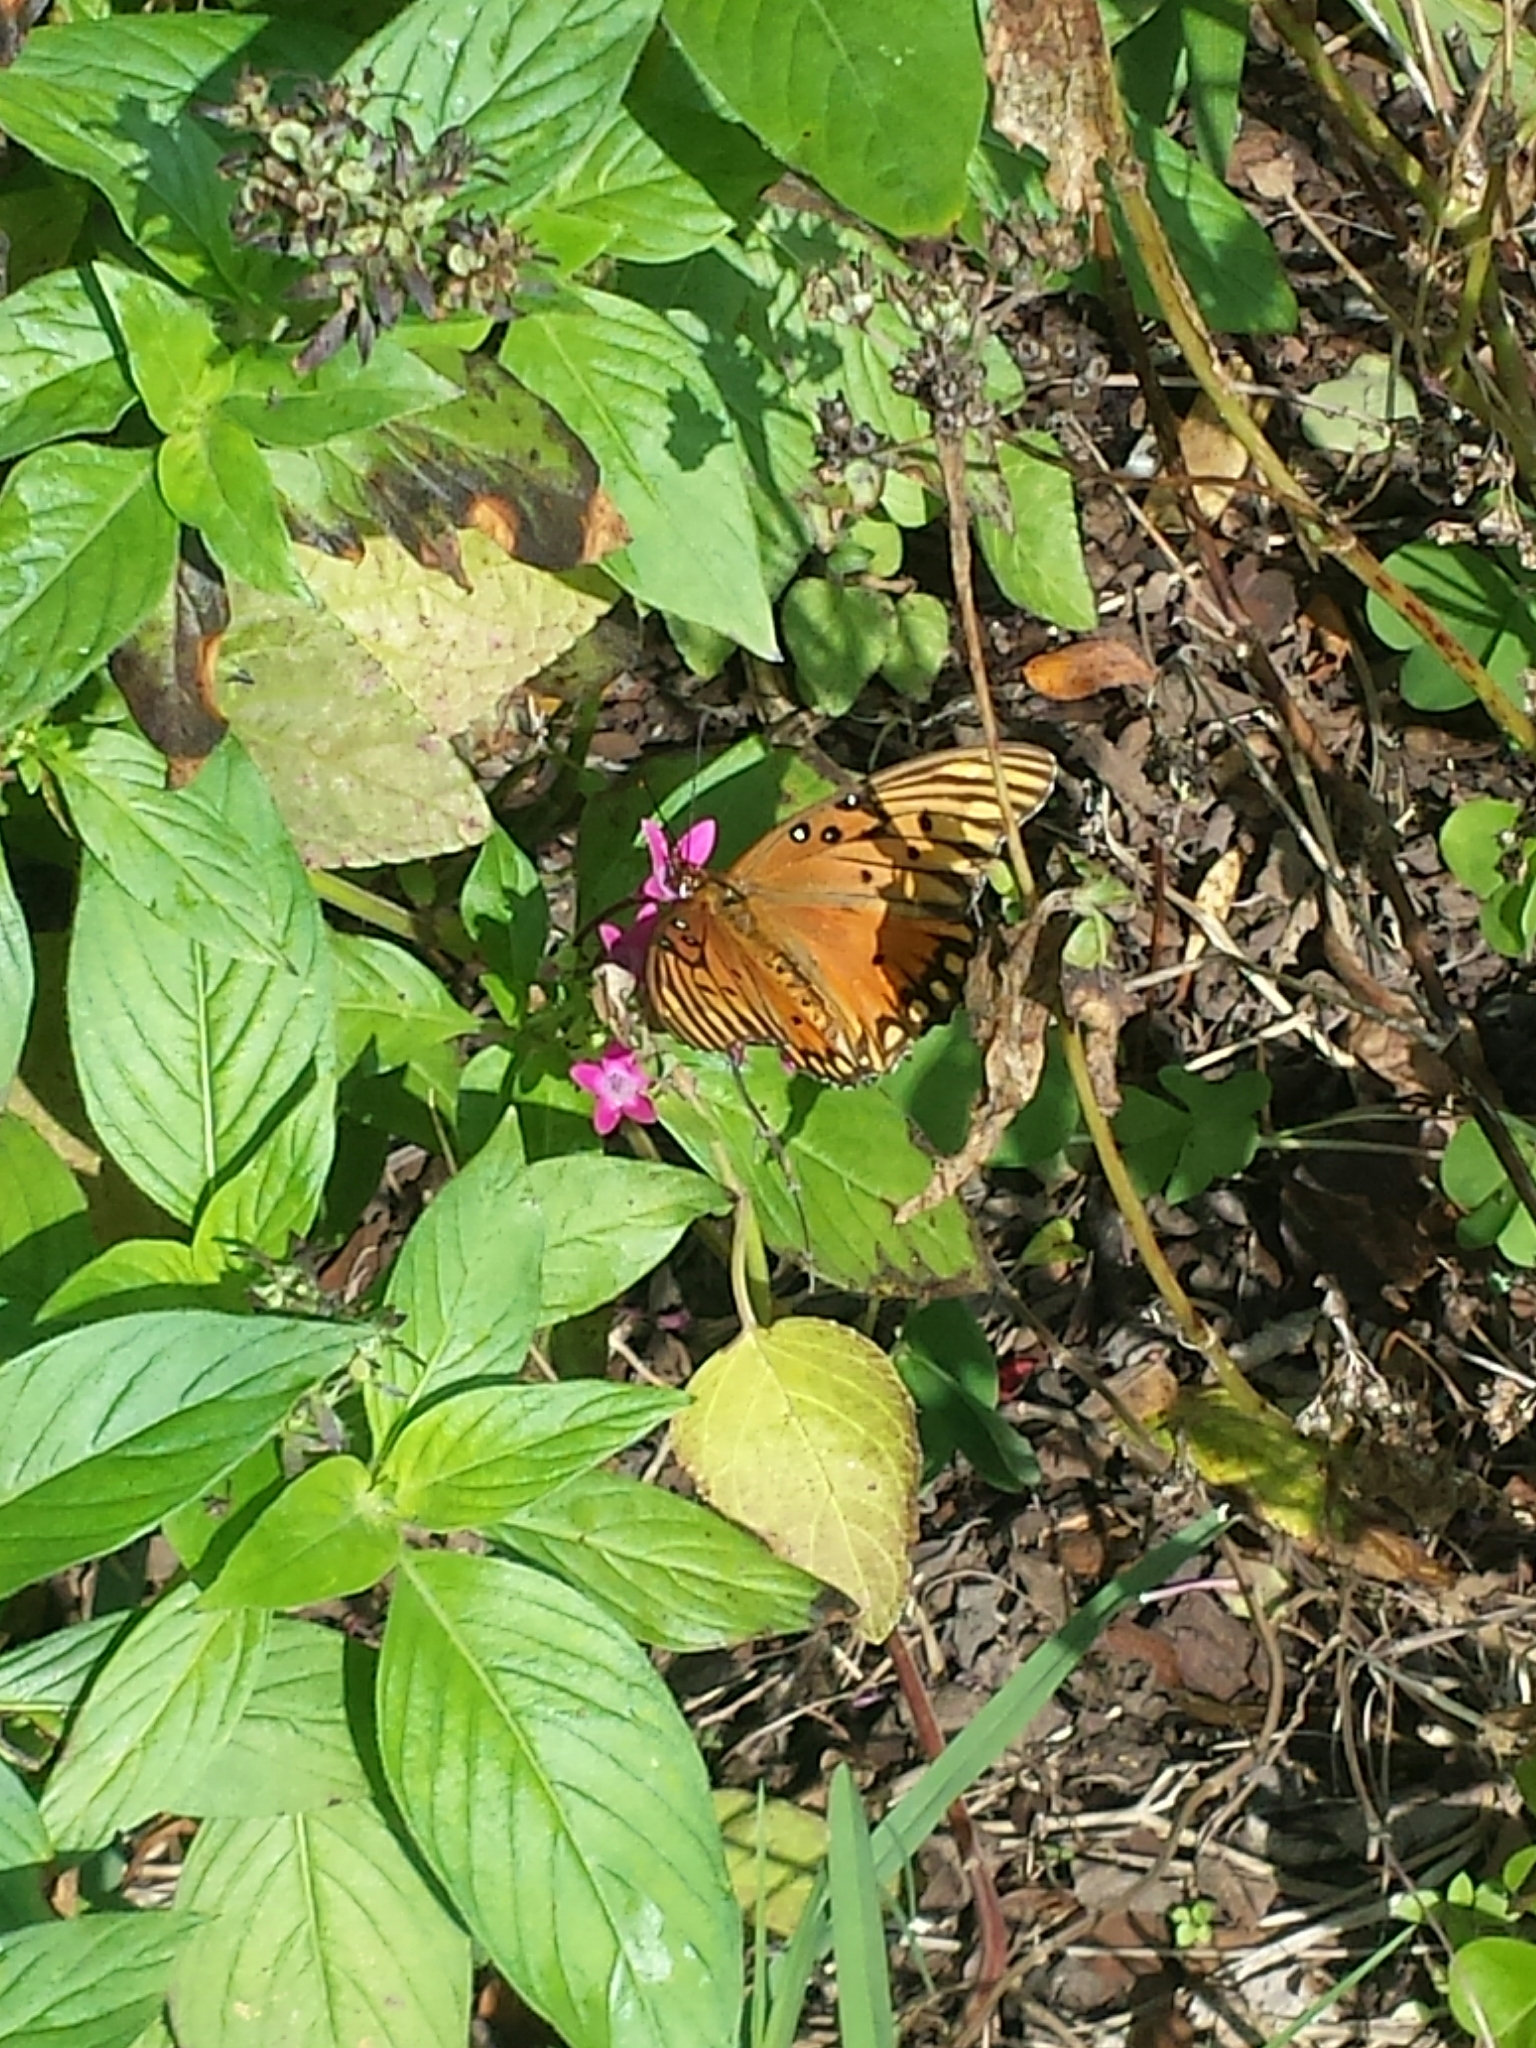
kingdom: Animalia
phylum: Arthropoda
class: Insecta
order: Lepidoptera
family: Nymphalidae
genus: Dione
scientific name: Dione vanillae
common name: Gulf fritillary
